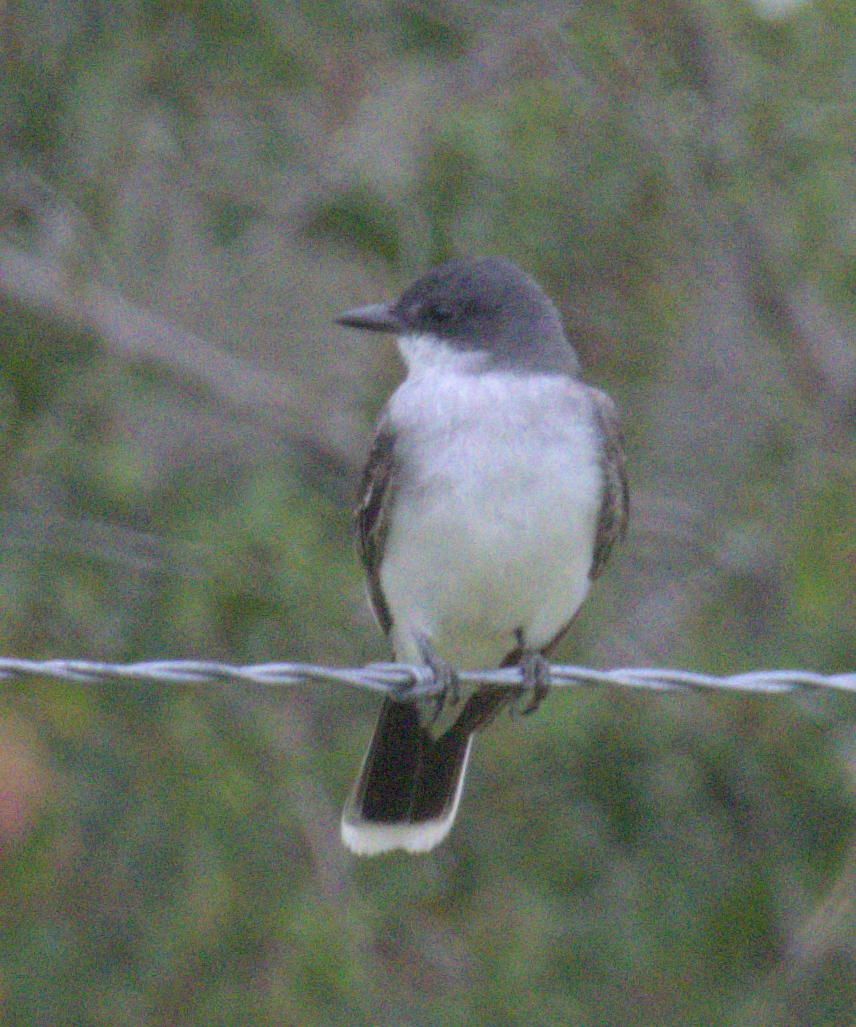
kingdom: Animalia
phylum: Chordata
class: Aves
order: Passeriformes
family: Tyrannidae
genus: Tyrannus
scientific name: Tyrannus tyrannus
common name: Eastern kingbird
